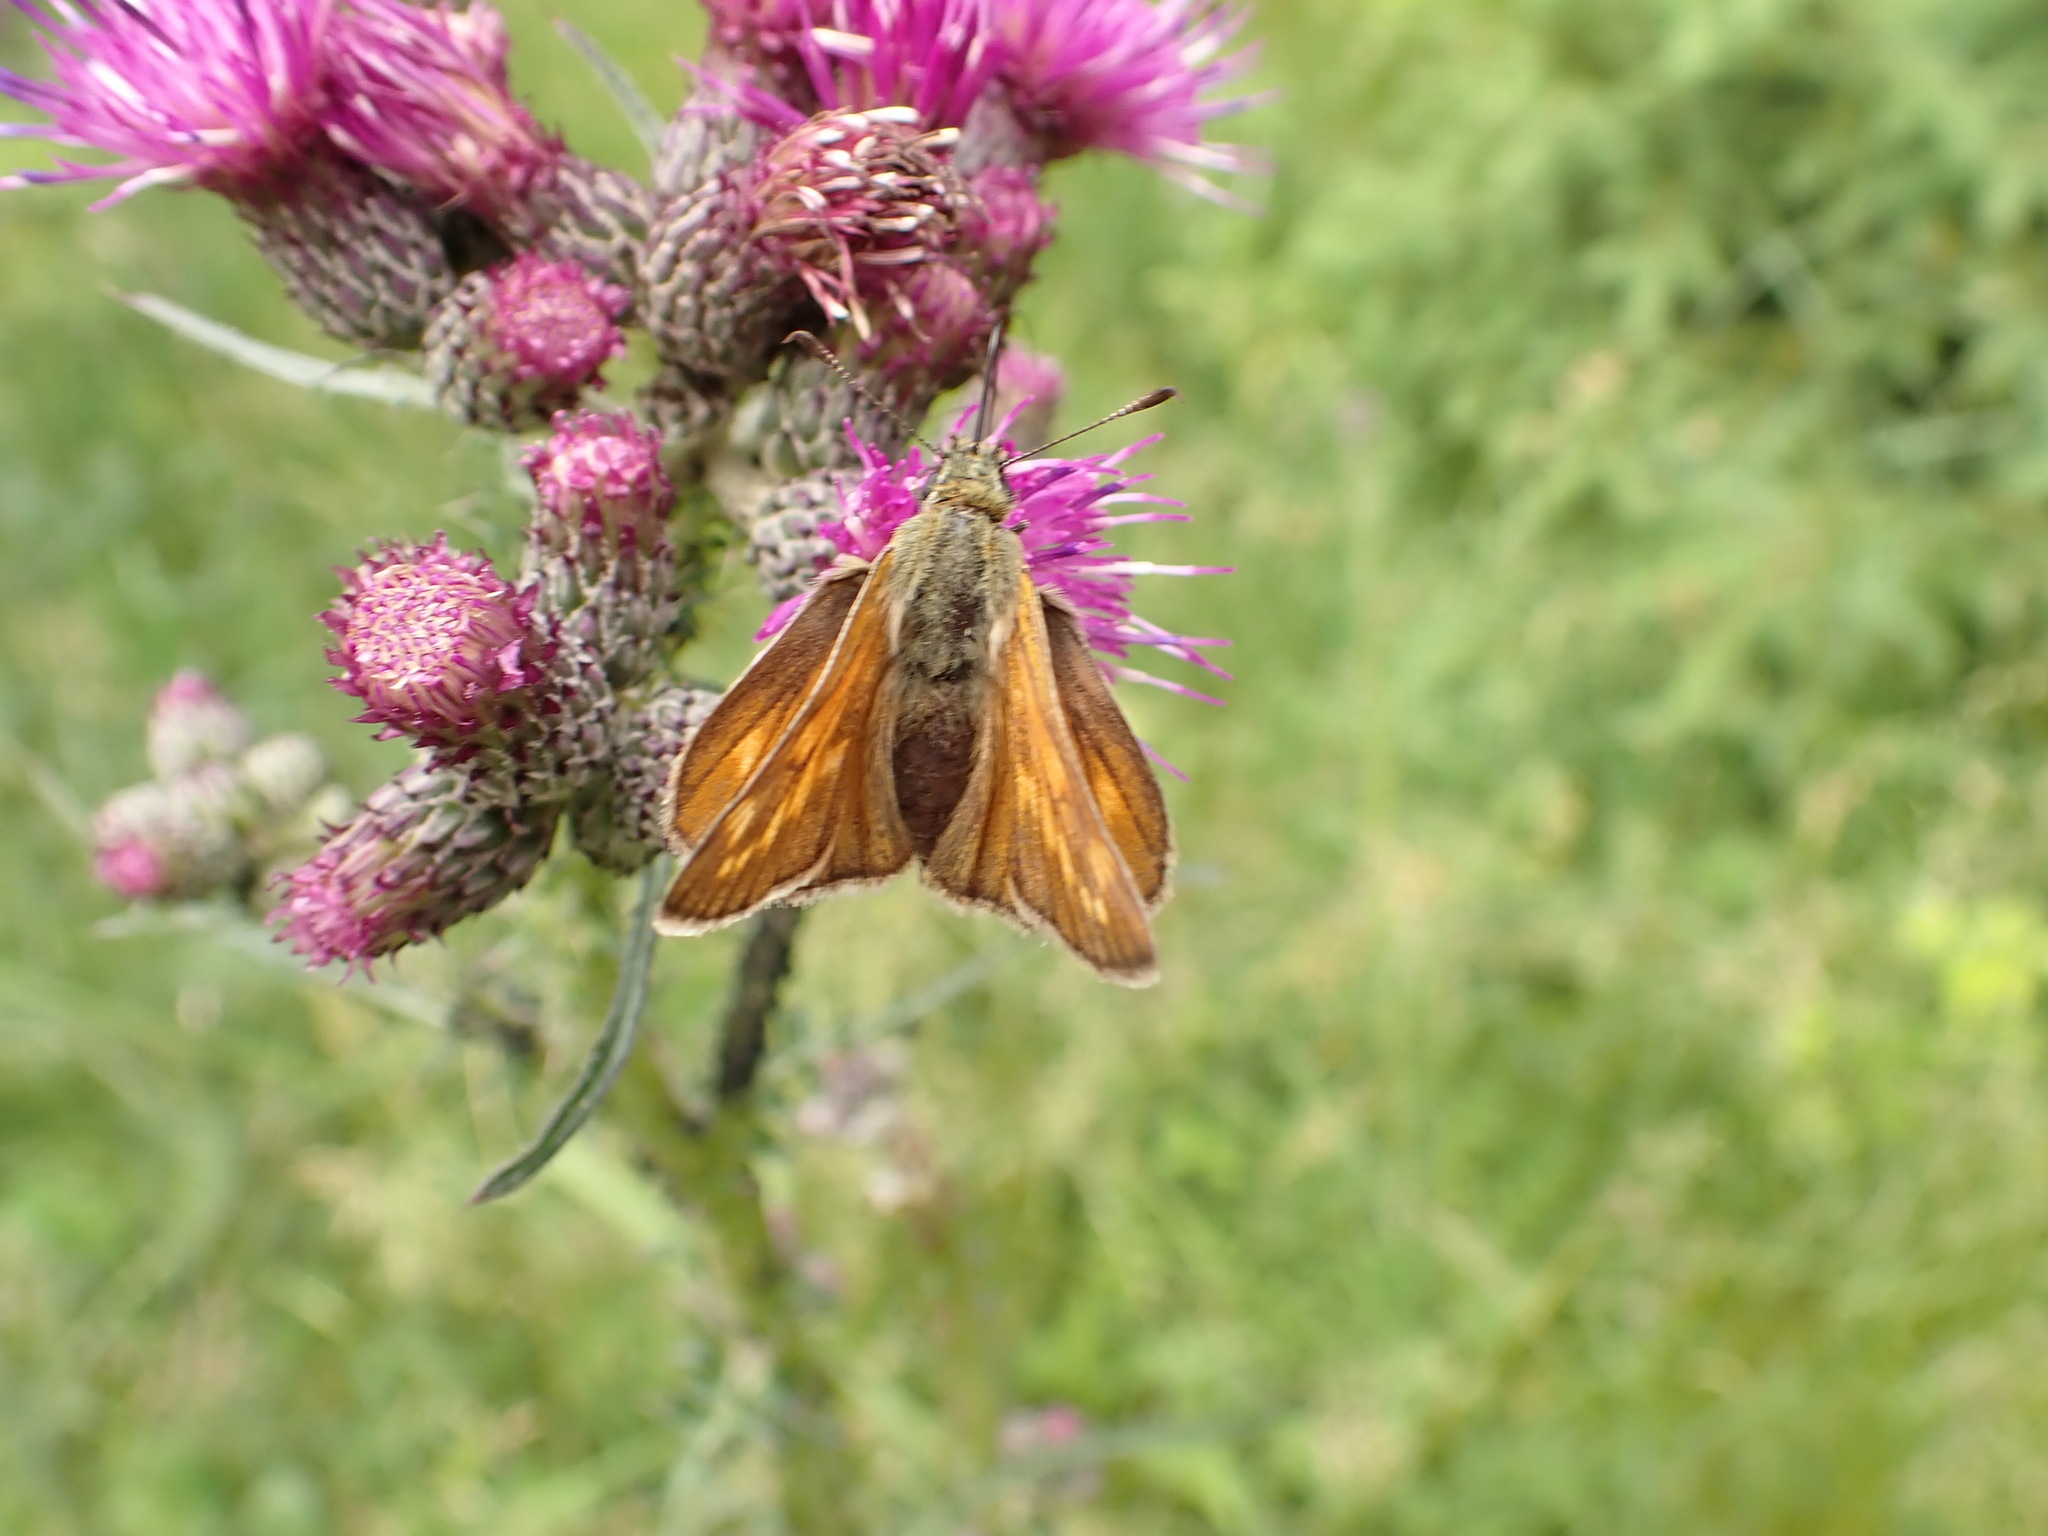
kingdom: Animalia
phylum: Arthropoda
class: Insecta
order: Lepidoptera
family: Hesperiidae
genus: Ochlodes
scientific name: Ochlodes venata
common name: Large skipper
